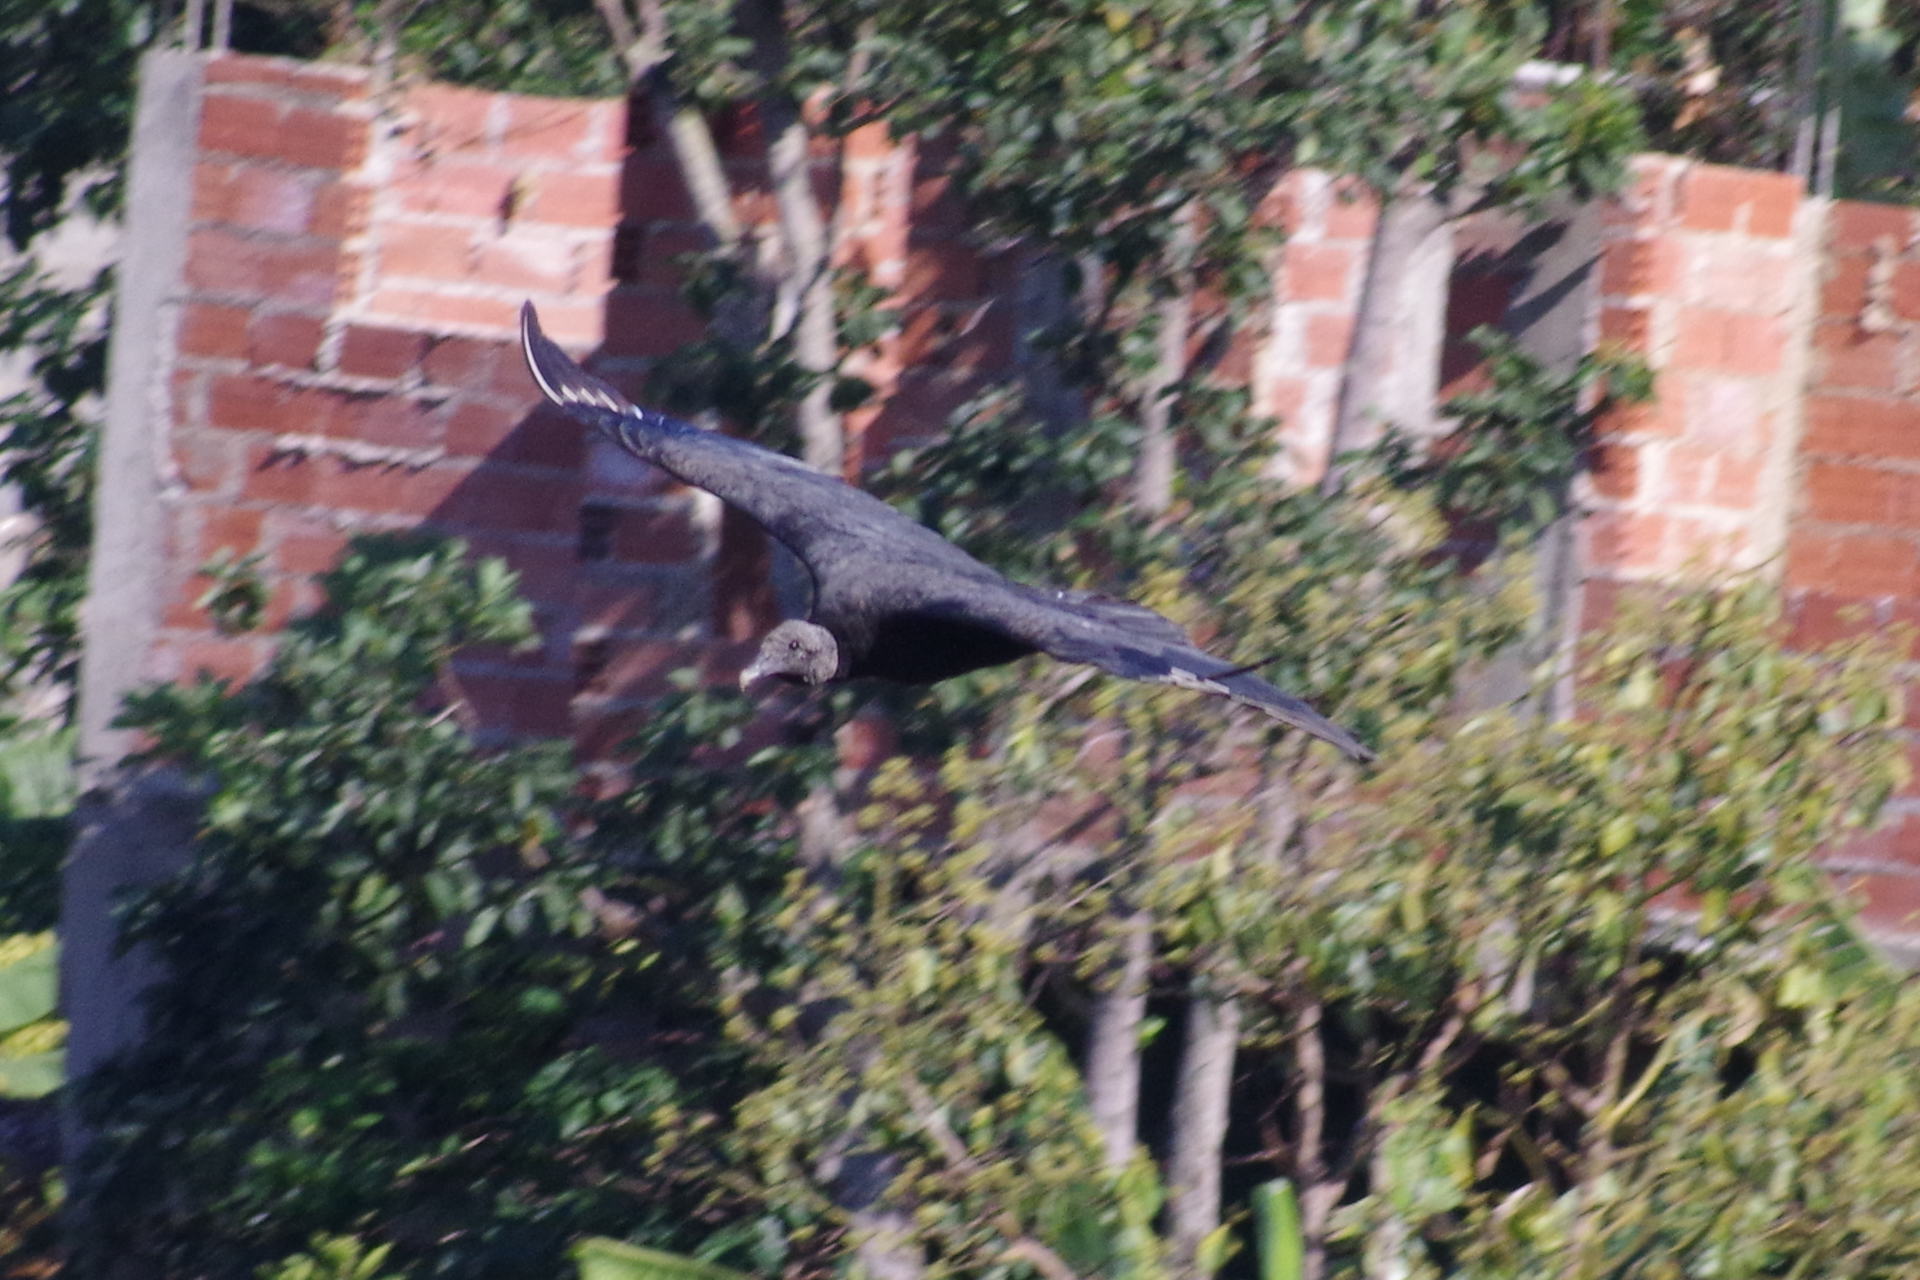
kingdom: Animalia
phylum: Chordata
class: Aves
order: Accipitriformes
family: Cathartidae
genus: Coragyps
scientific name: Coragyps atratus
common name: Black vulture
